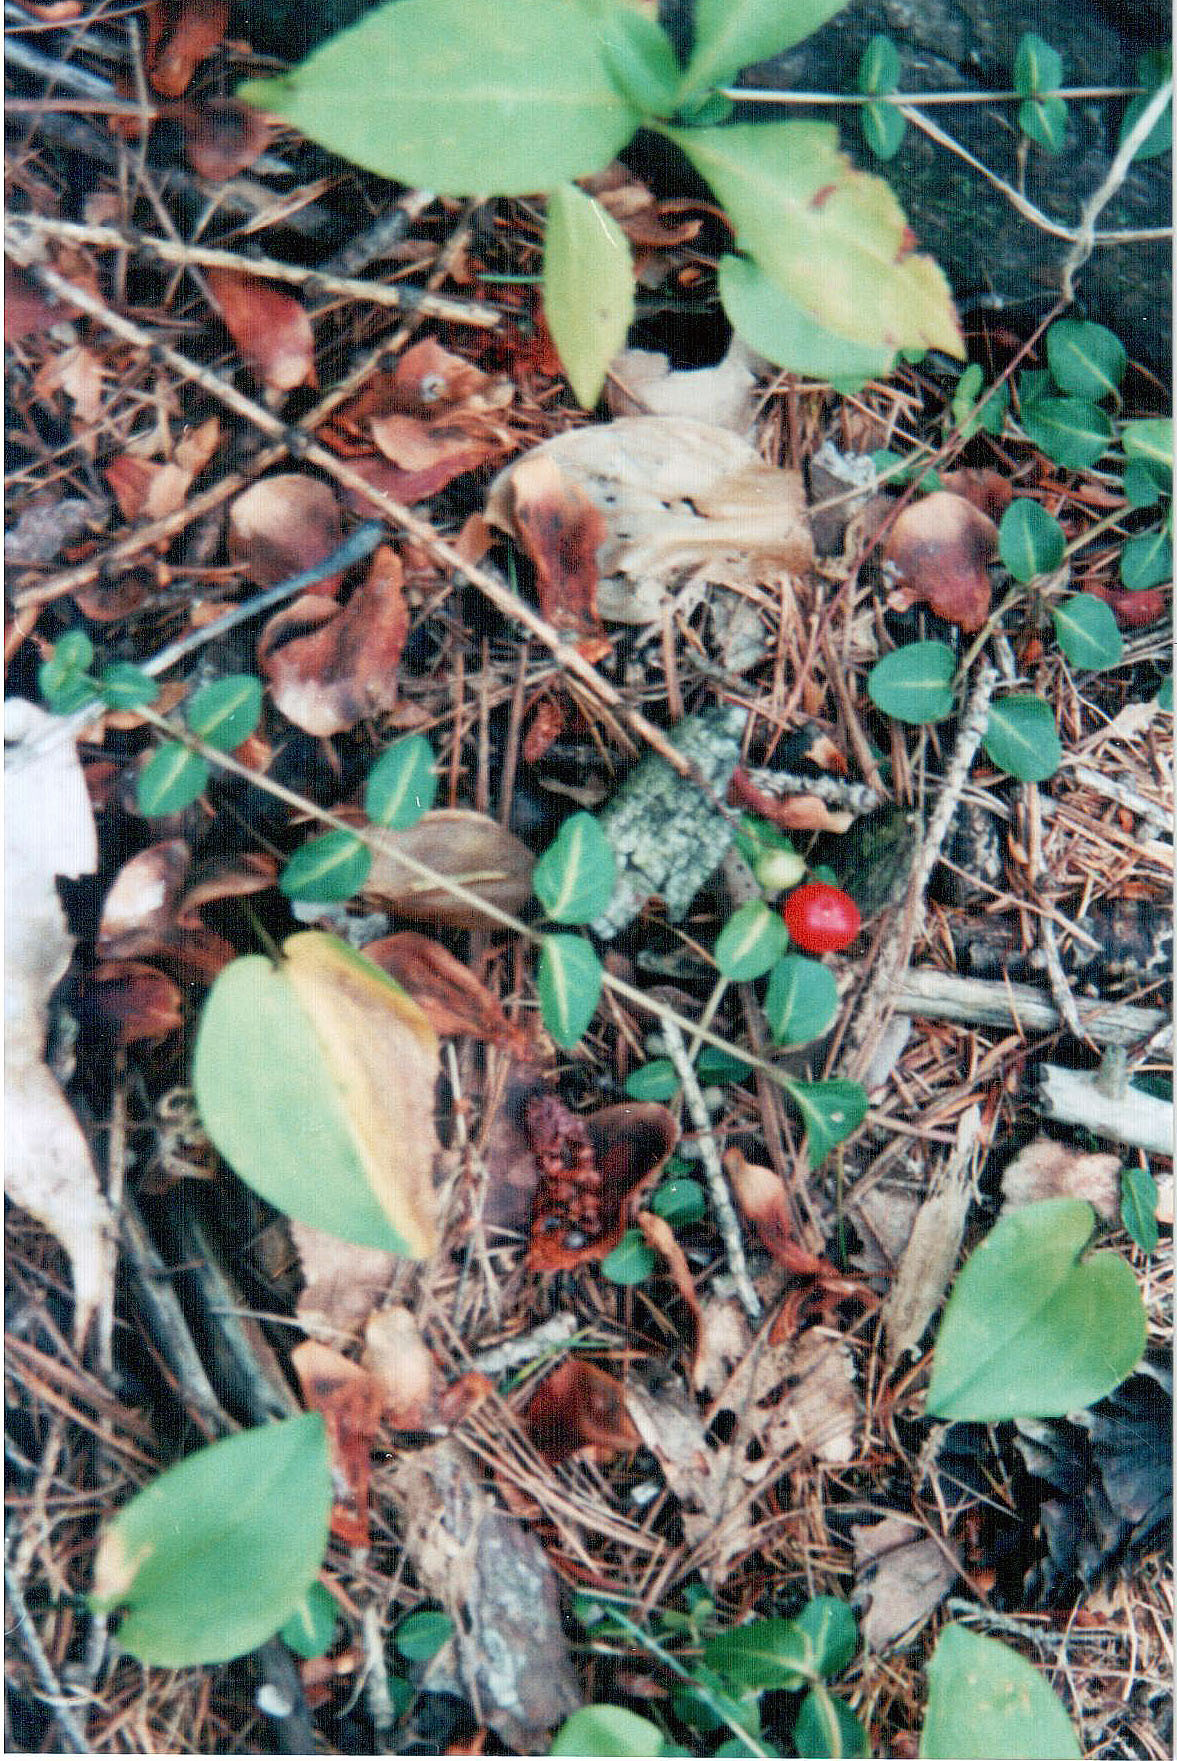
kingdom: Plantae
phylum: Tracheophyta
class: Magnoliopsida
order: Gentianales
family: Rubiaceae
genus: Mitchella
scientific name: Mitchella repens
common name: Partridge-berry
